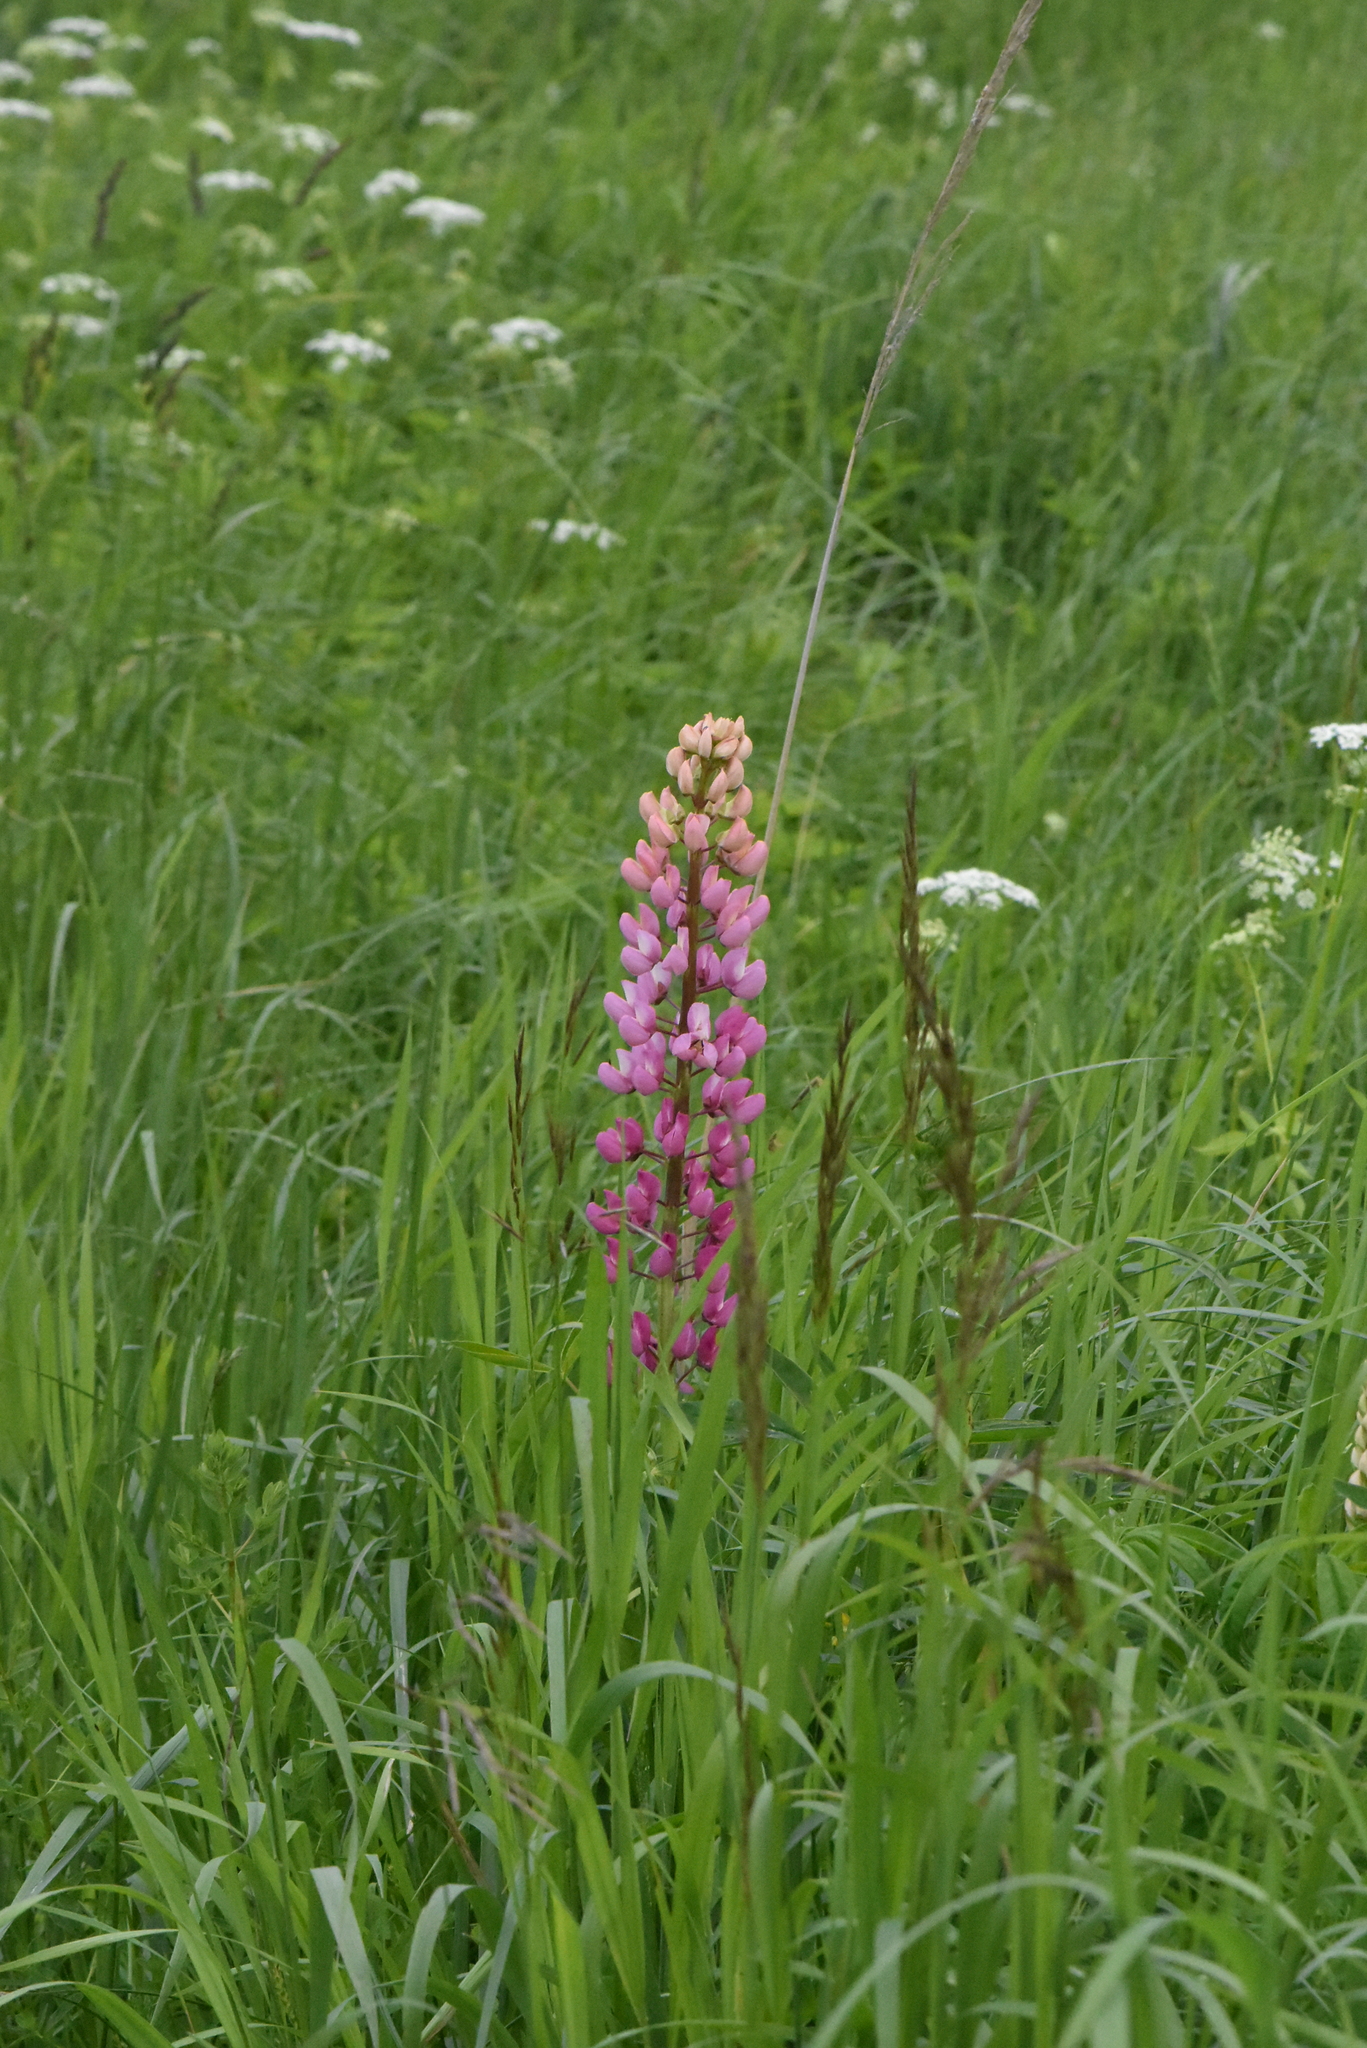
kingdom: Plantae
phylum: Tracheophyta
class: Magnoliopsida
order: Fabales
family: Fabaceae
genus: Lupinus
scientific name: Lupinus polyphyllus
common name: Garden lupin
